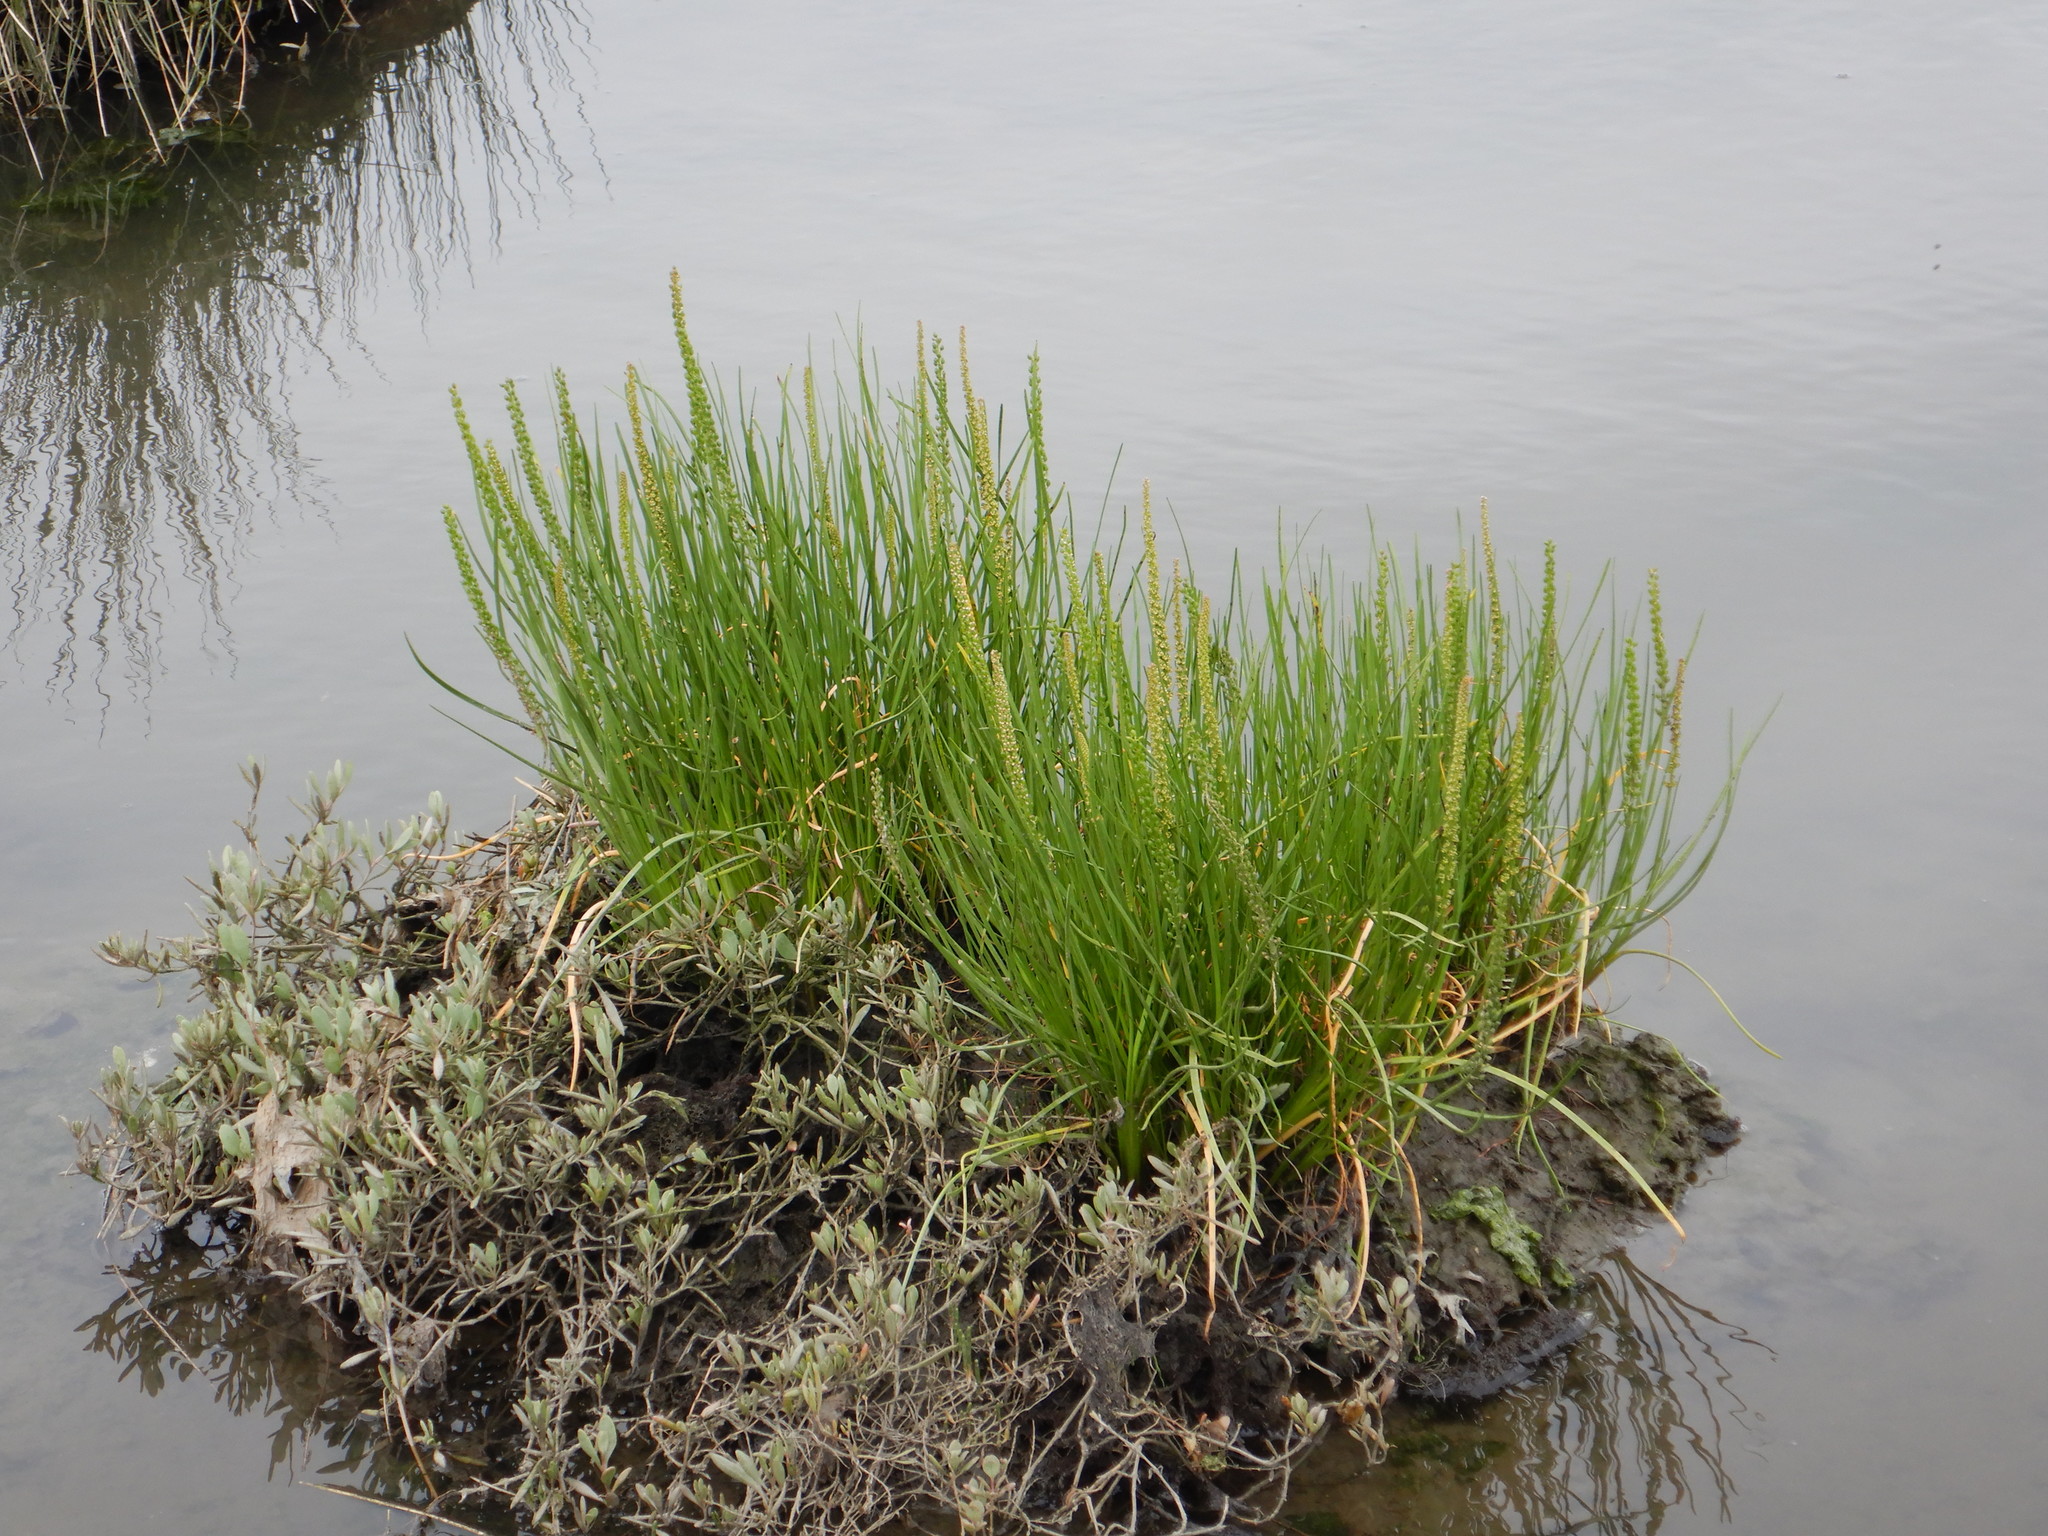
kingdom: Plantae
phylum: Tracheophyta
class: Liliopsida
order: Alismatales
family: Juncaginaceae
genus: Triglochin
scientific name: Triglochin maritima
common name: Sea arrowgrass
